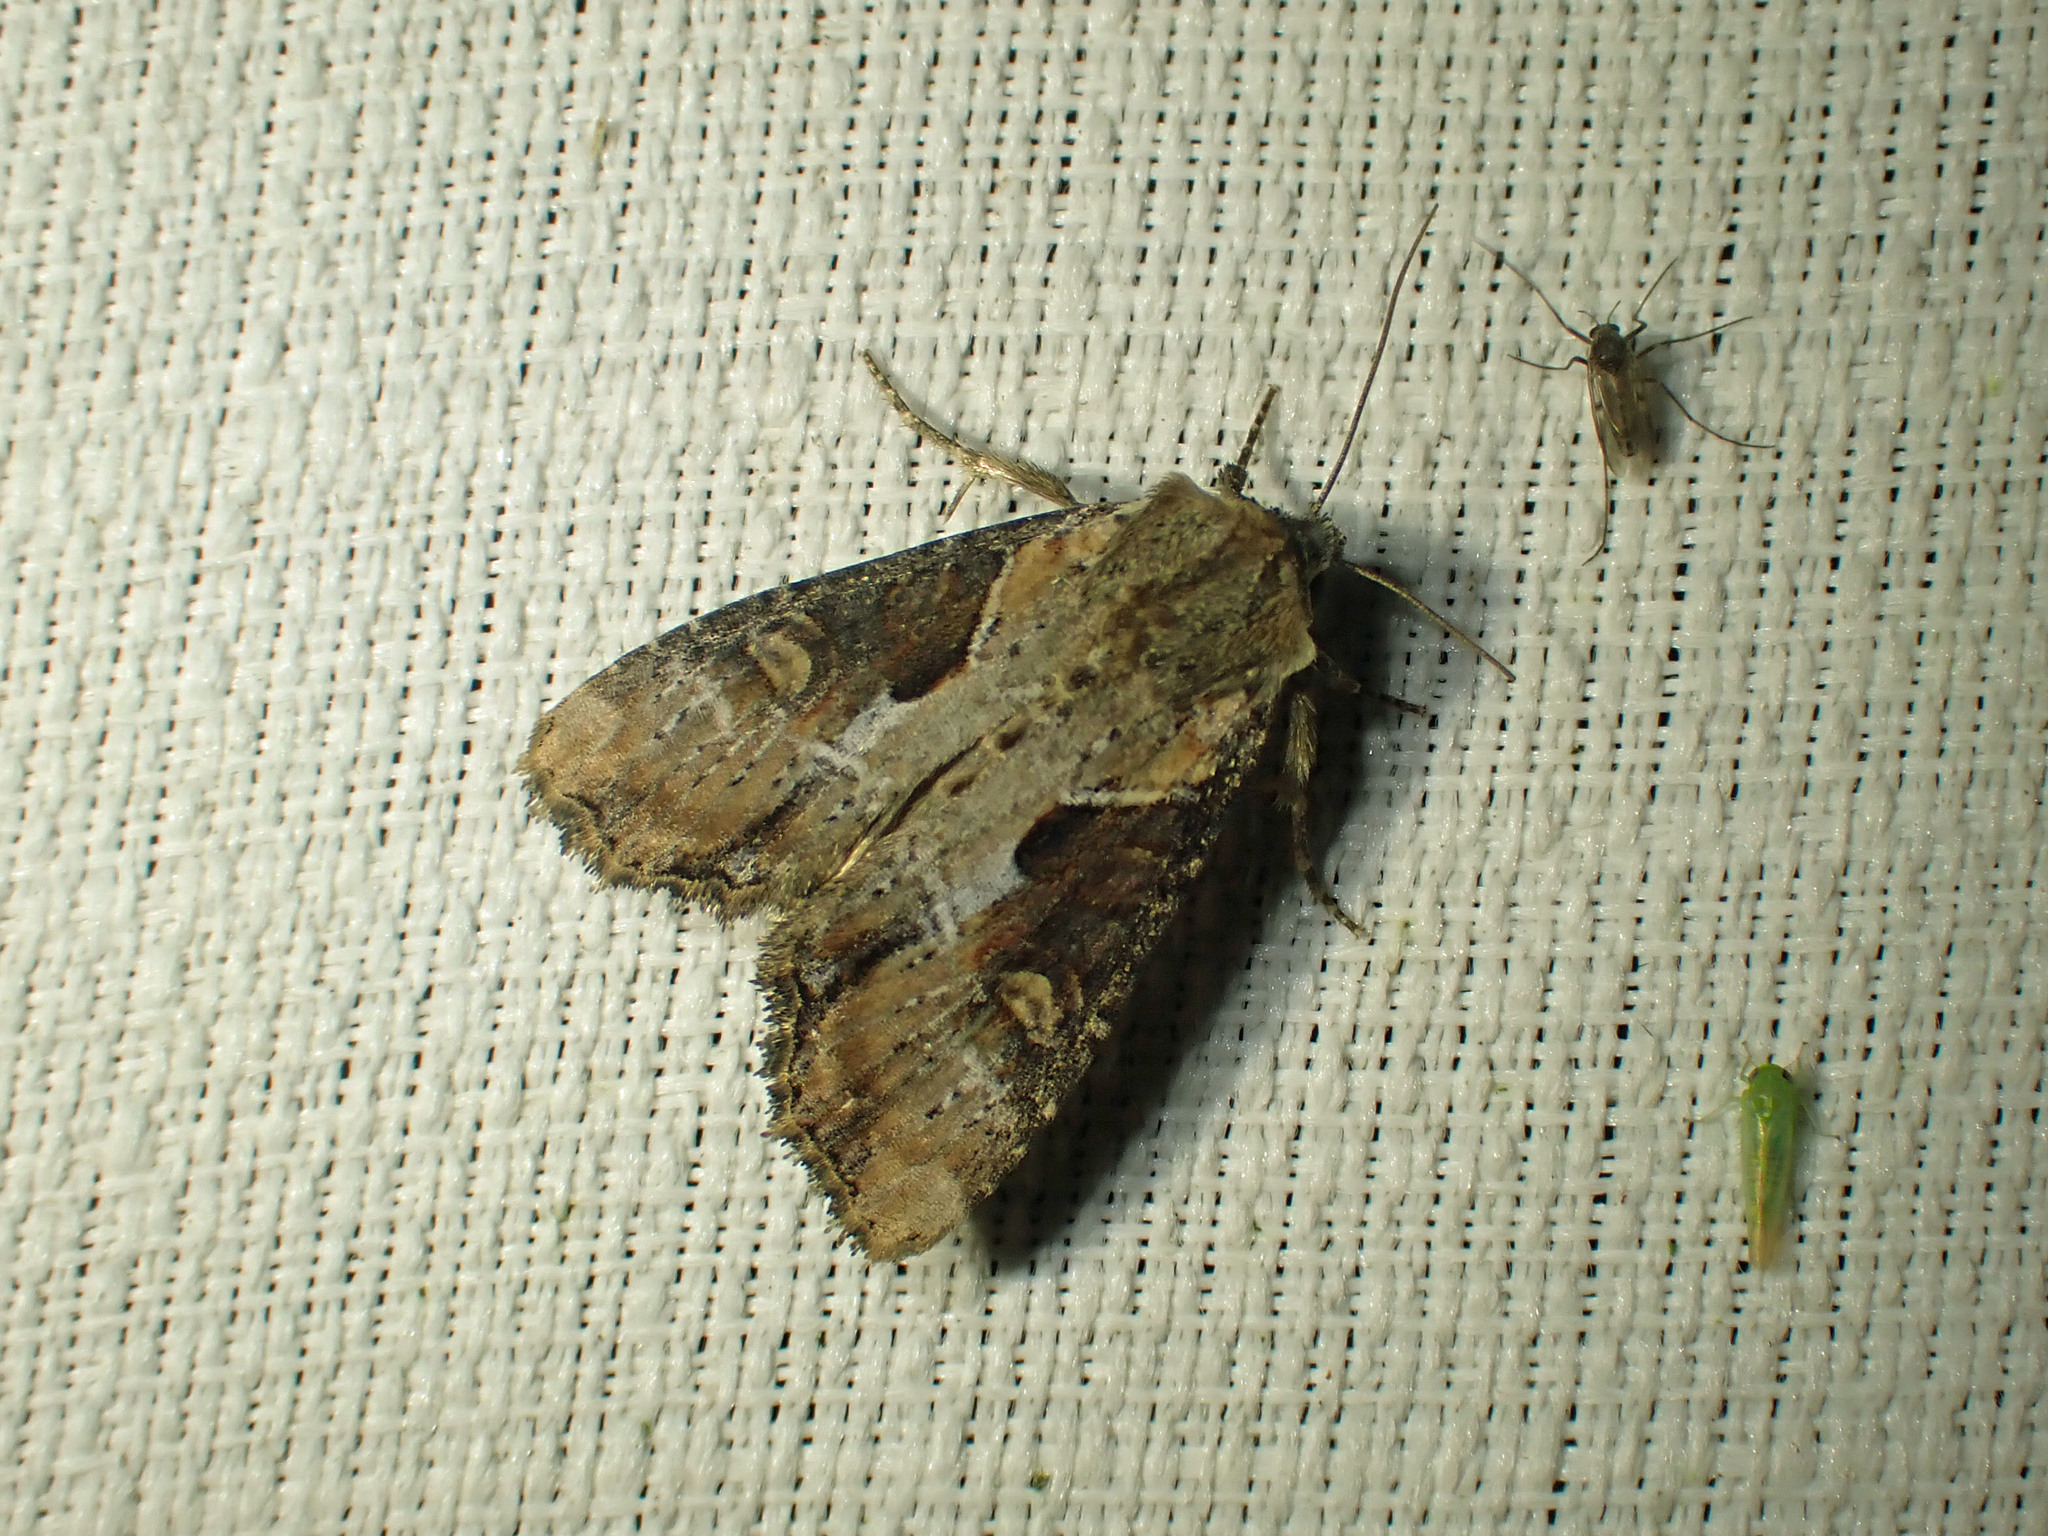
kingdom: Animalia
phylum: Arthropoda
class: Insecta
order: Lepidoptera
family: Noctuidae
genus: Lateroligia
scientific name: Lateroligia ophiogramma
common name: Double lobed
